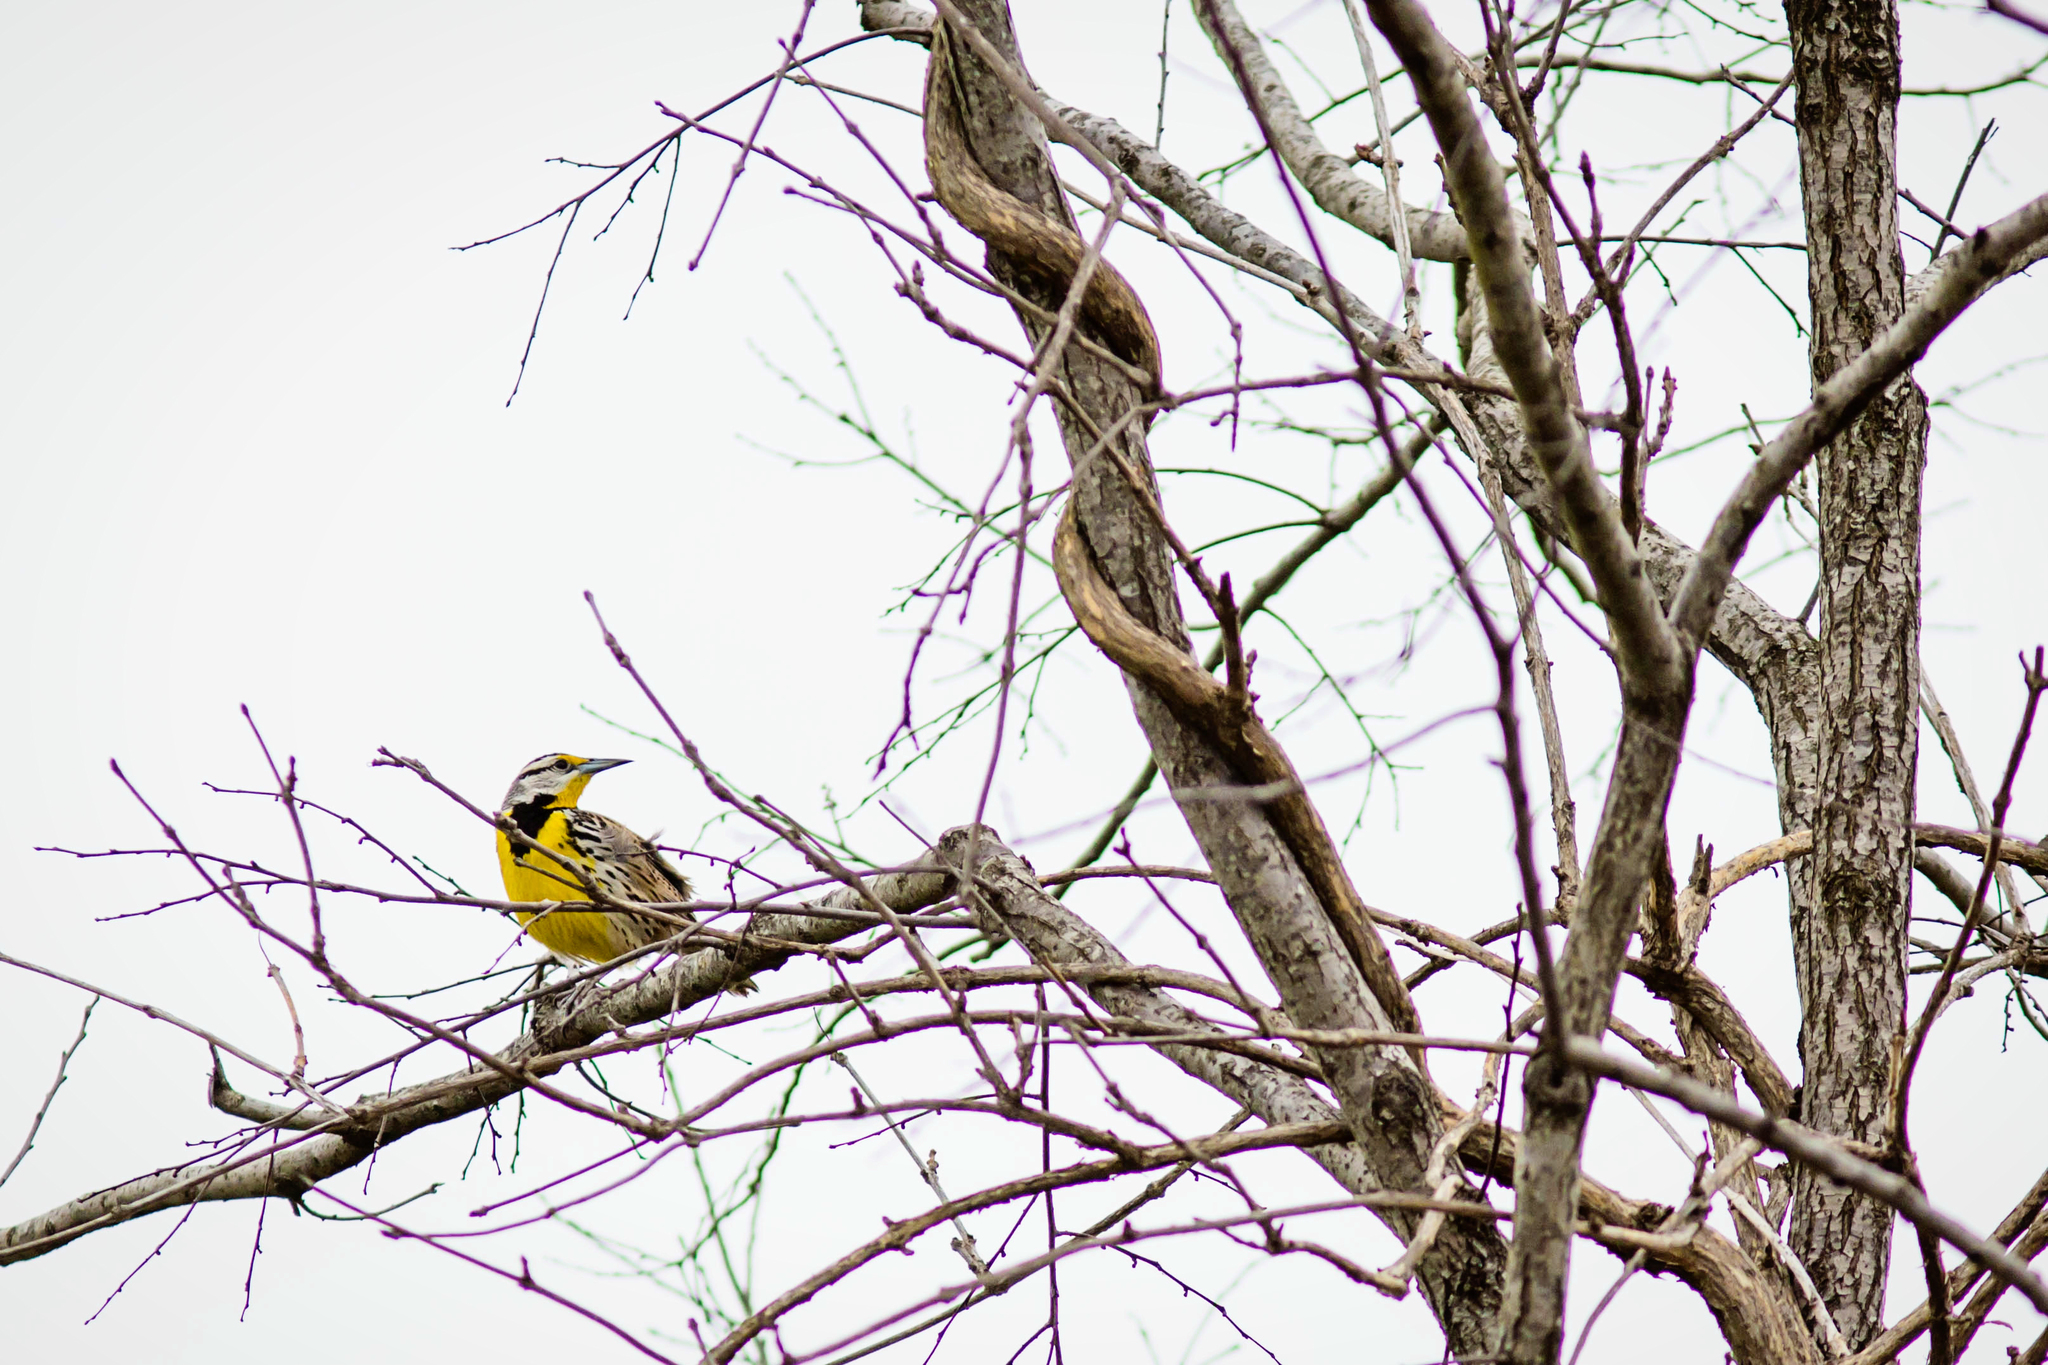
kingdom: Animalia
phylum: Chordata
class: Aves
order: Passeriformes
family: Icteridae
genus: Sturnella
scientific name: Sturnella magna
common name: Eastern meadowlark
